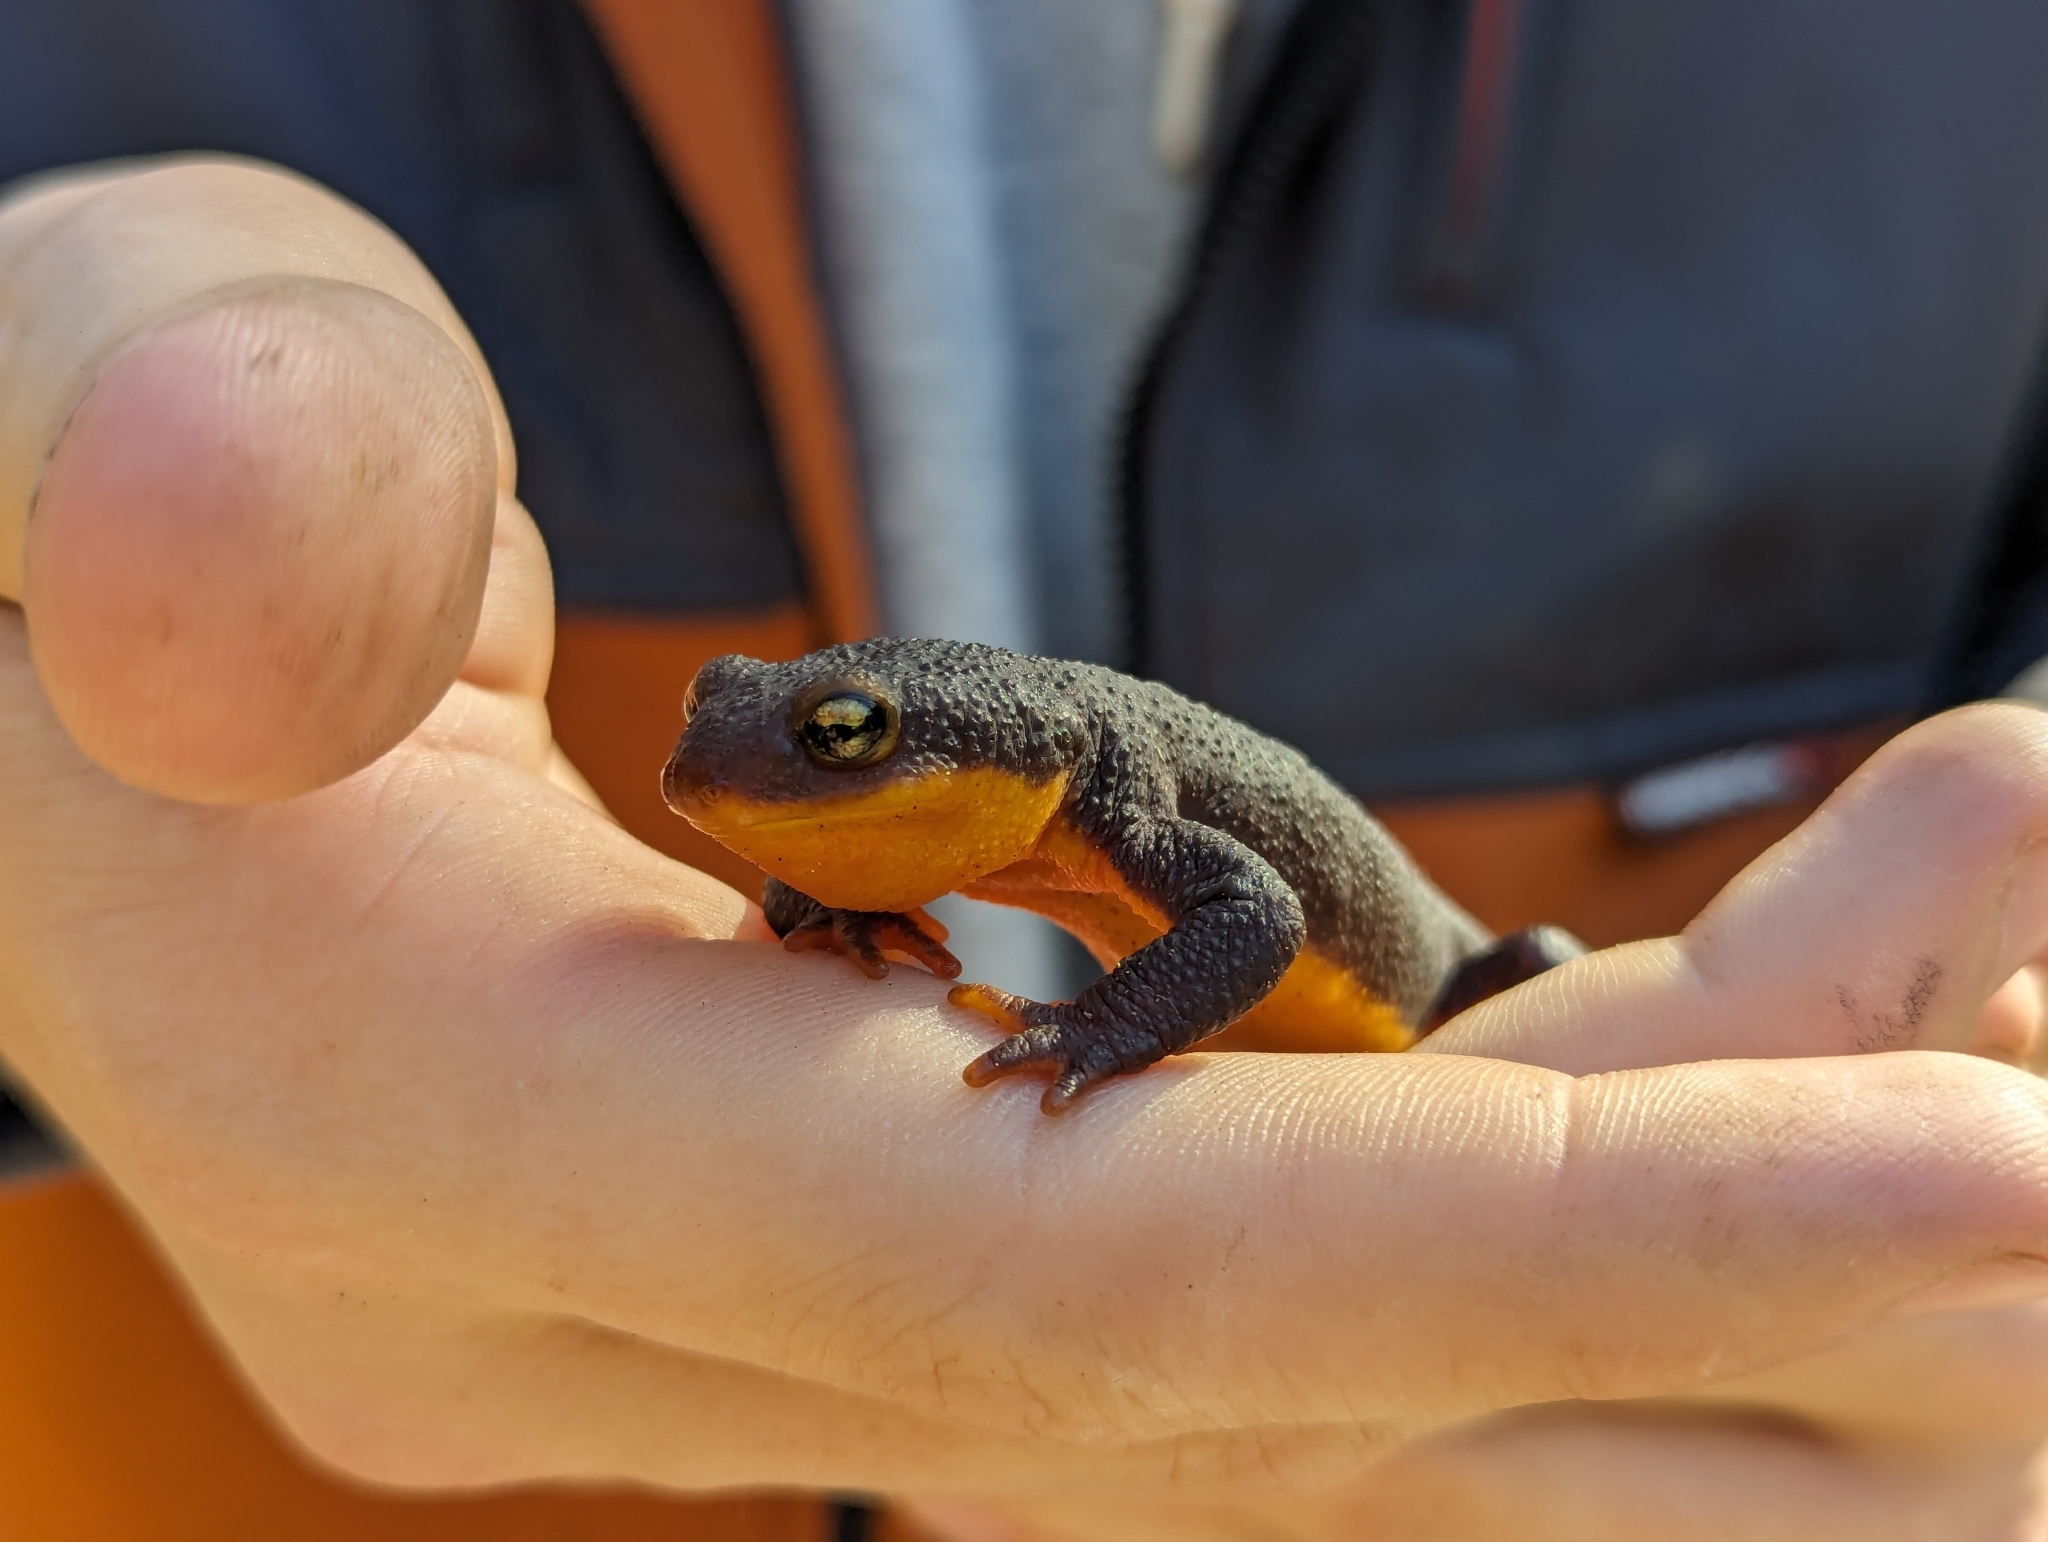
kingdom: Animalia
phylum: Chordata
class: Amphibia
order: Caudata
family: Salamandridae
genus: Taricha
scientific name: Taricha torosa
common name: California newt
